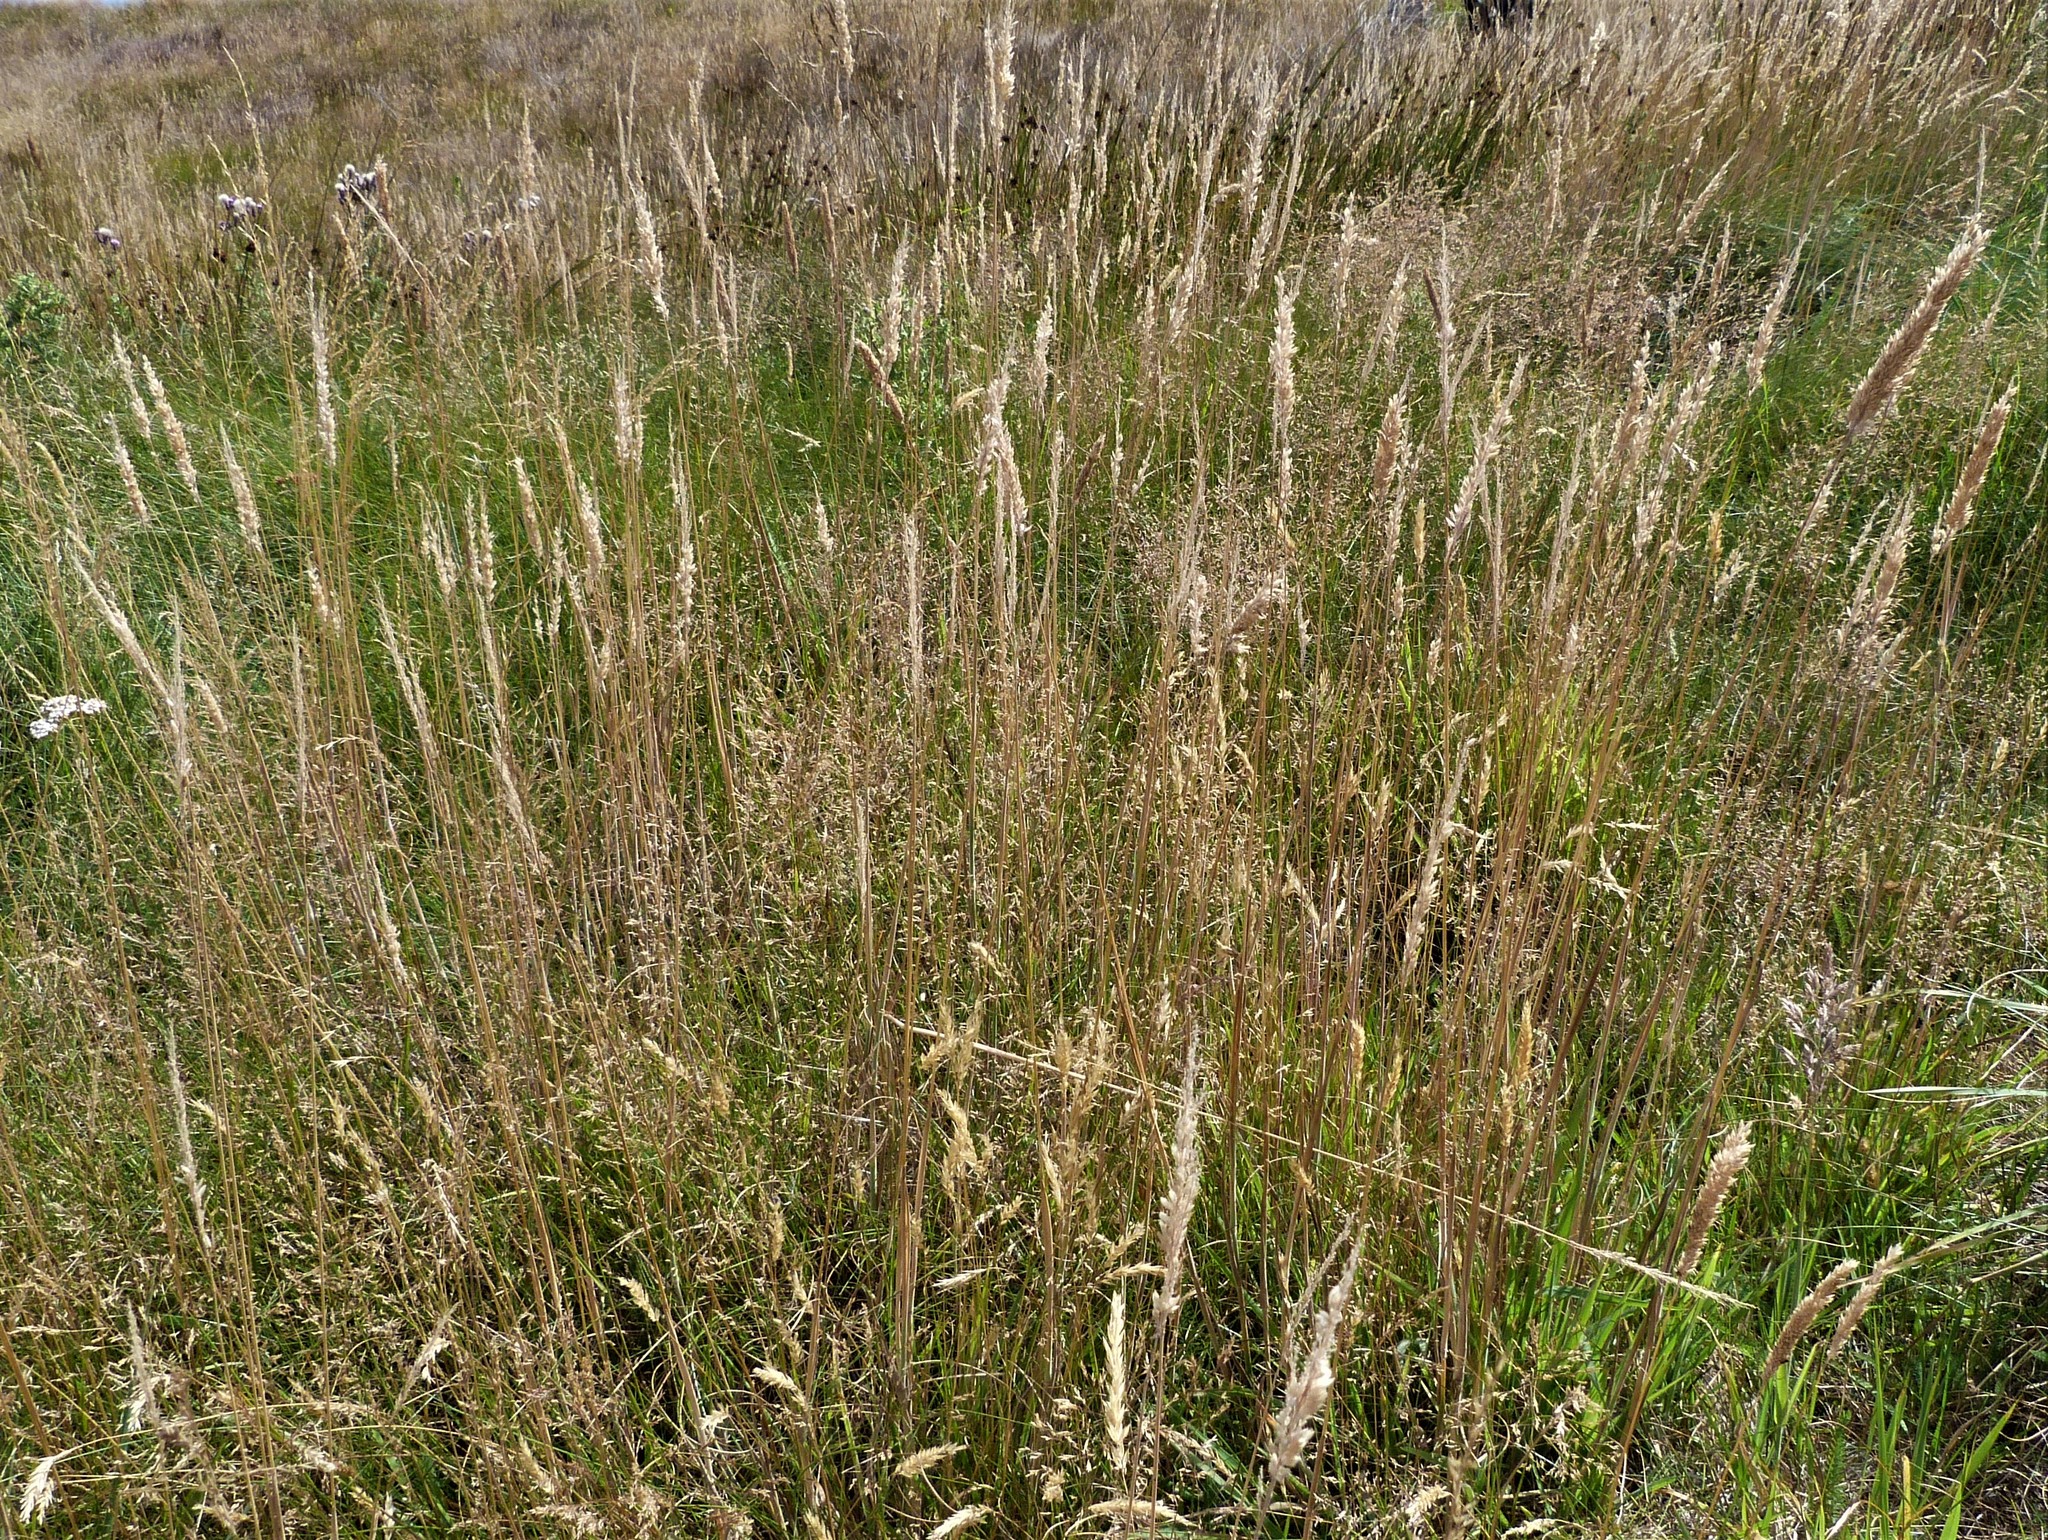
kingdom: Plantae
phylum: Tracheophyta
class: Liliopsida
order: Poales
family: Poaceae
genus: Holcus
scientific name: Holcus lanatus
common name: Yorkshire-fog
